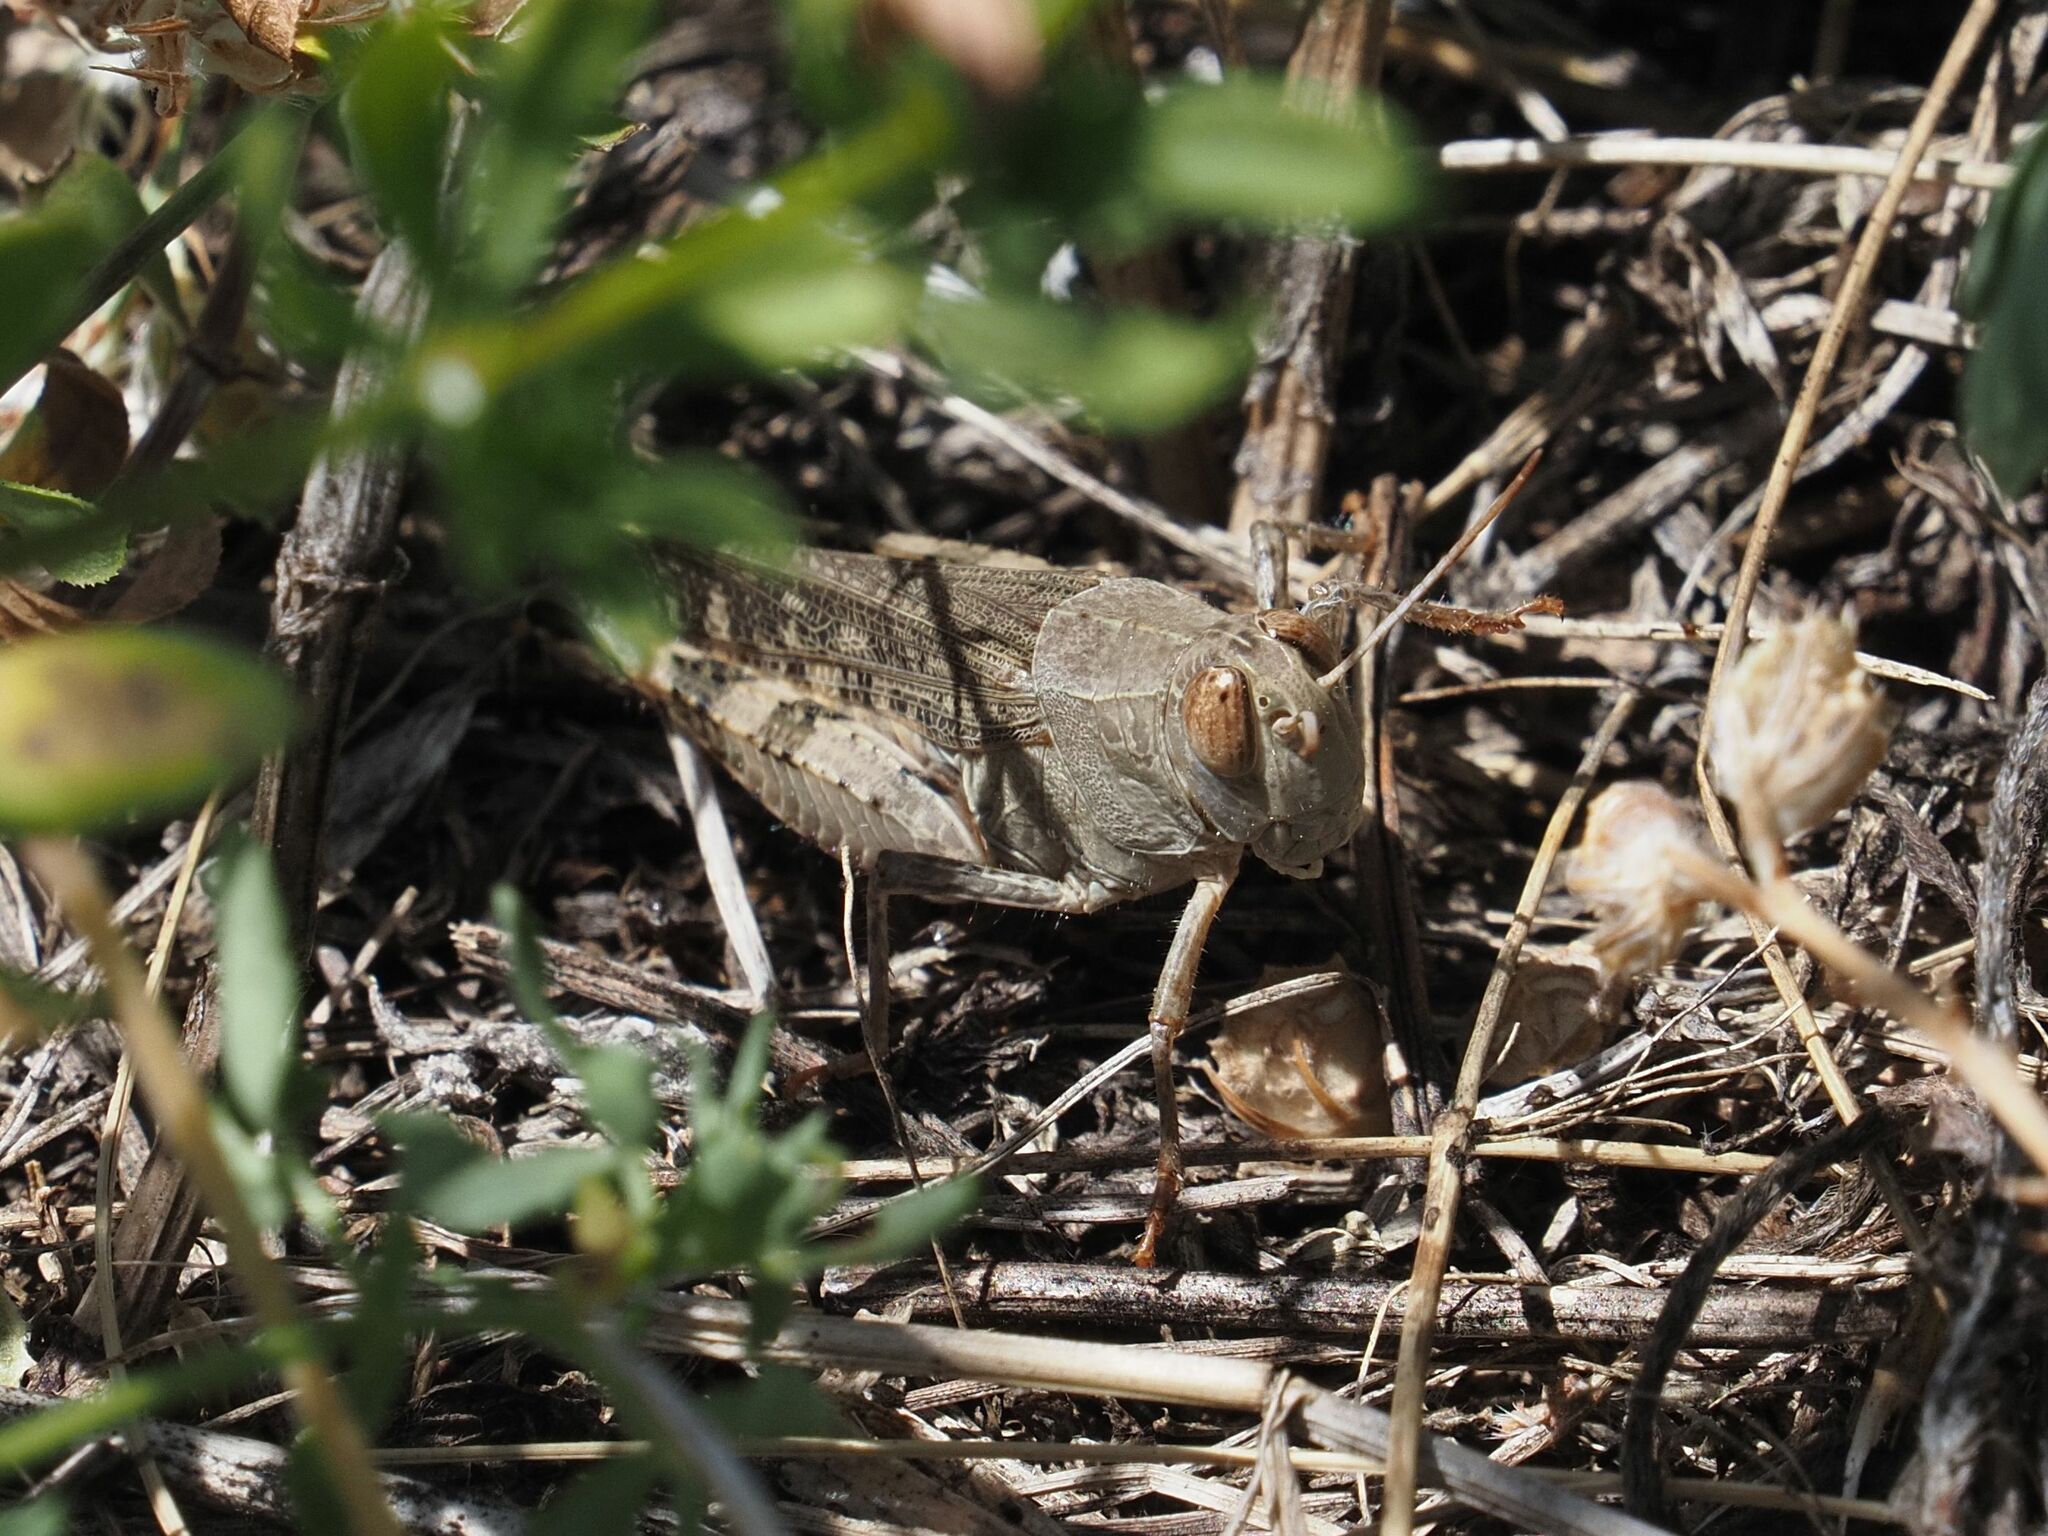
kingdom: Animalia
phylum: Arthropoda
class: Insecta
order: Orthoptera
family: Acrididae
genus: Calliptamus
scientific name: Calliptamus italicus
